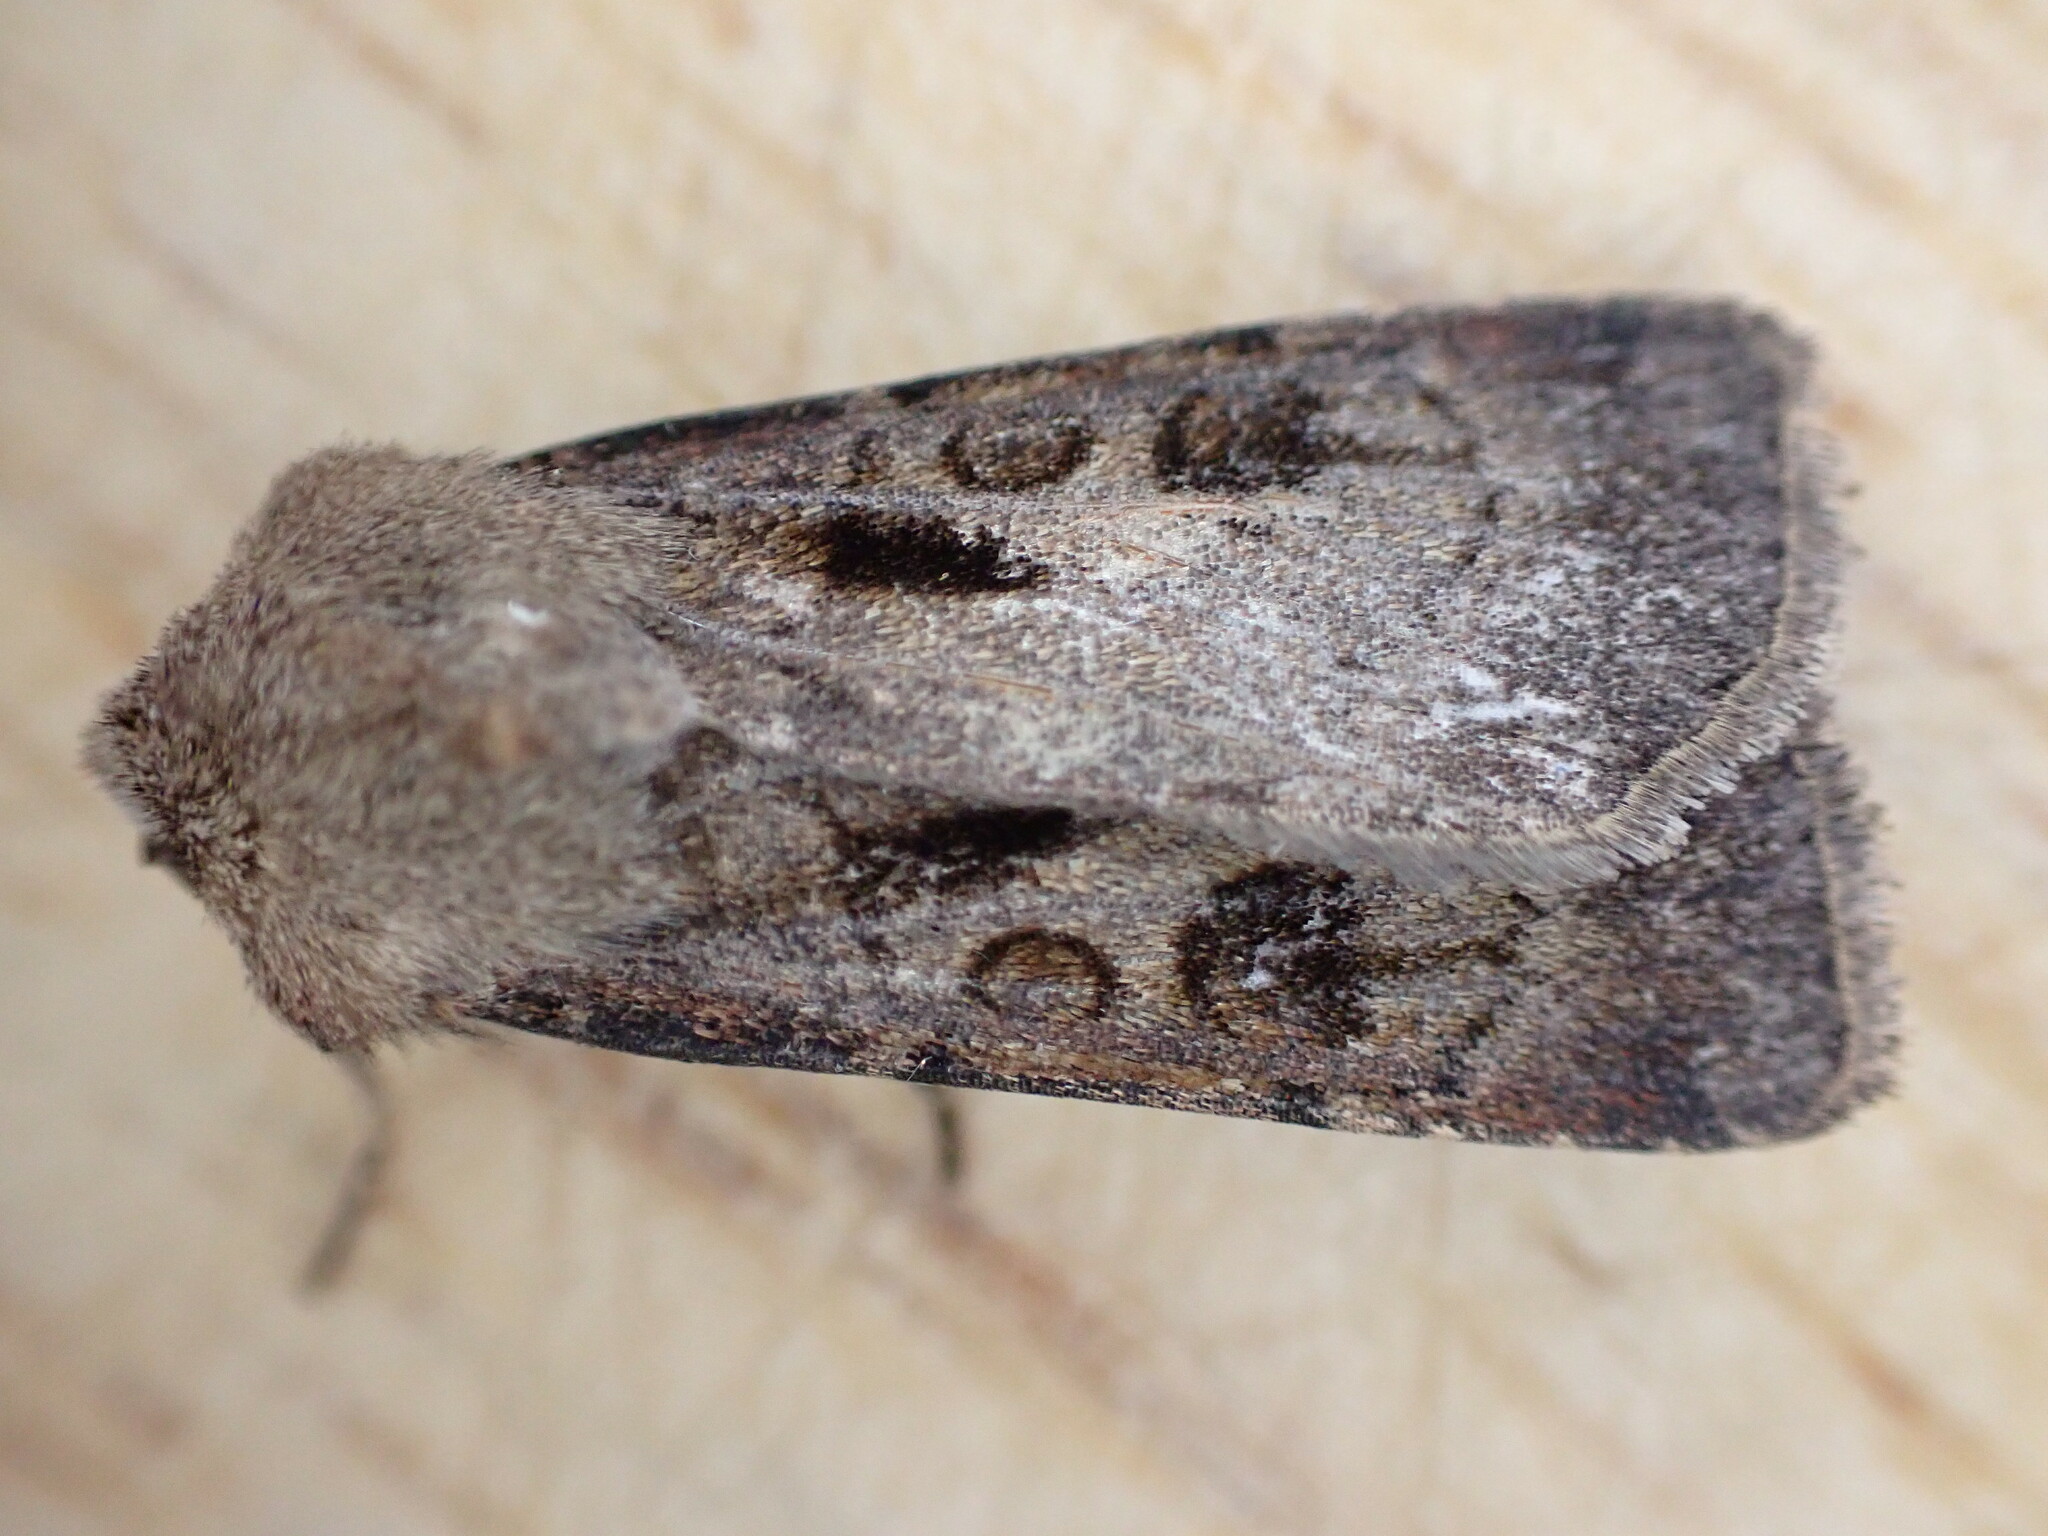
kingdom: Animalia
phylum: Arthropoda
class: Insecta
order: Lepidoptera
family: Noctuidae
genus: Agrotis
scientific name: Agrotis exclamationis
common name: Heart and dart
